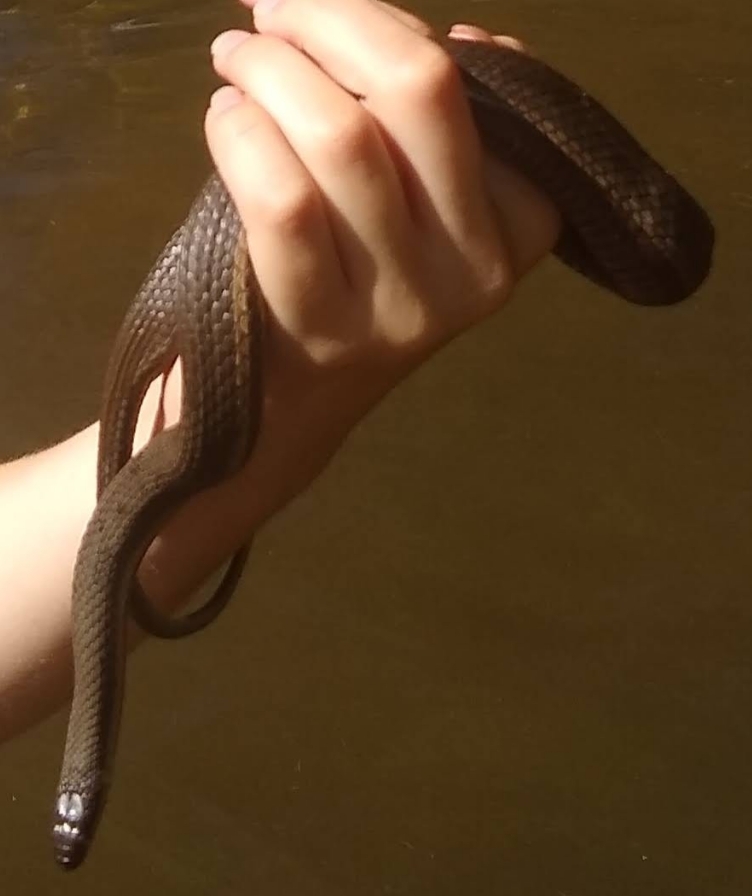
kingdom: Animalia
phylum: Chordata
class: Squamata
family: Colubridae
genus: Regina
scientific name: Regina septemvittata
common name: Queen snake
